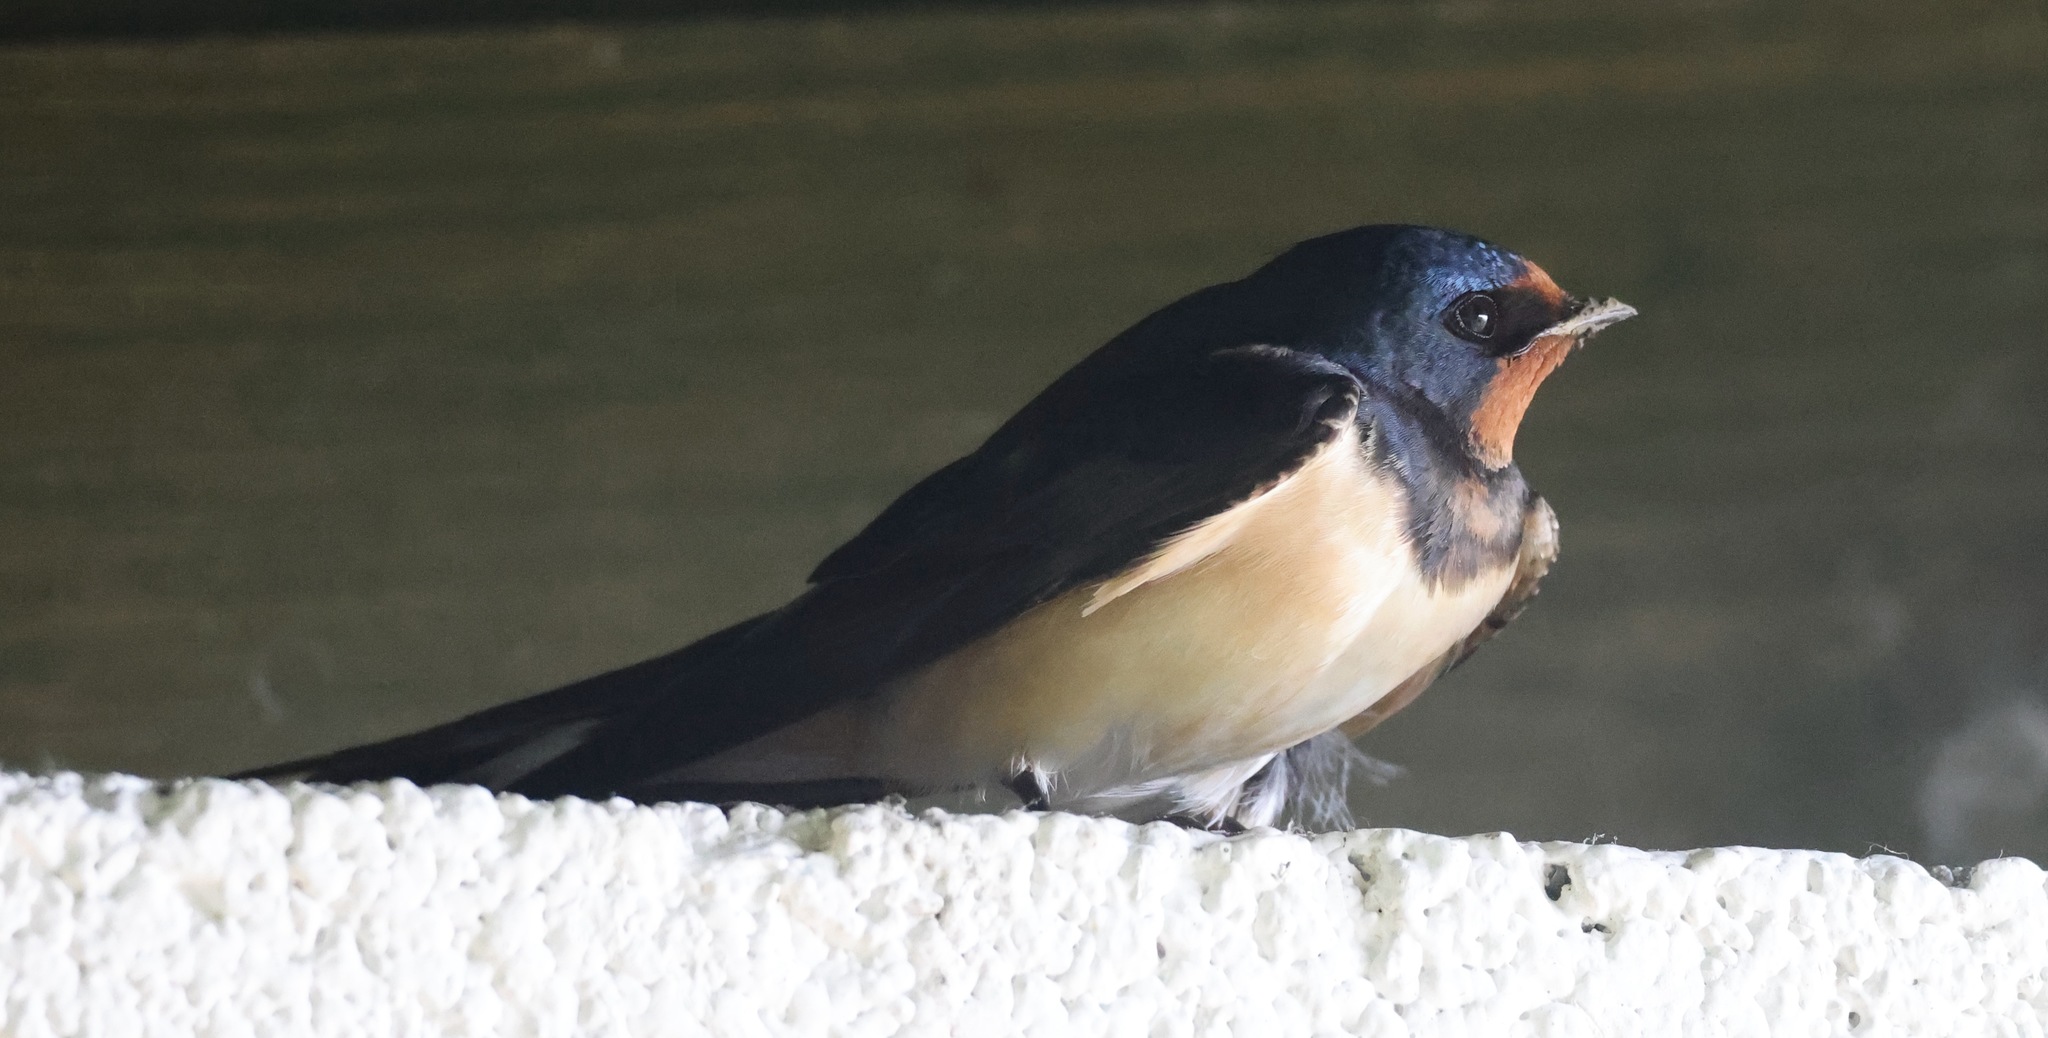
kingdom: Animalia
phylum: Chordata
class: Aves
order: Passeriformes
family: Hirundinidae
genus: Hirundo
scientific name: Hirundo rustica
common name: Barn swallow
